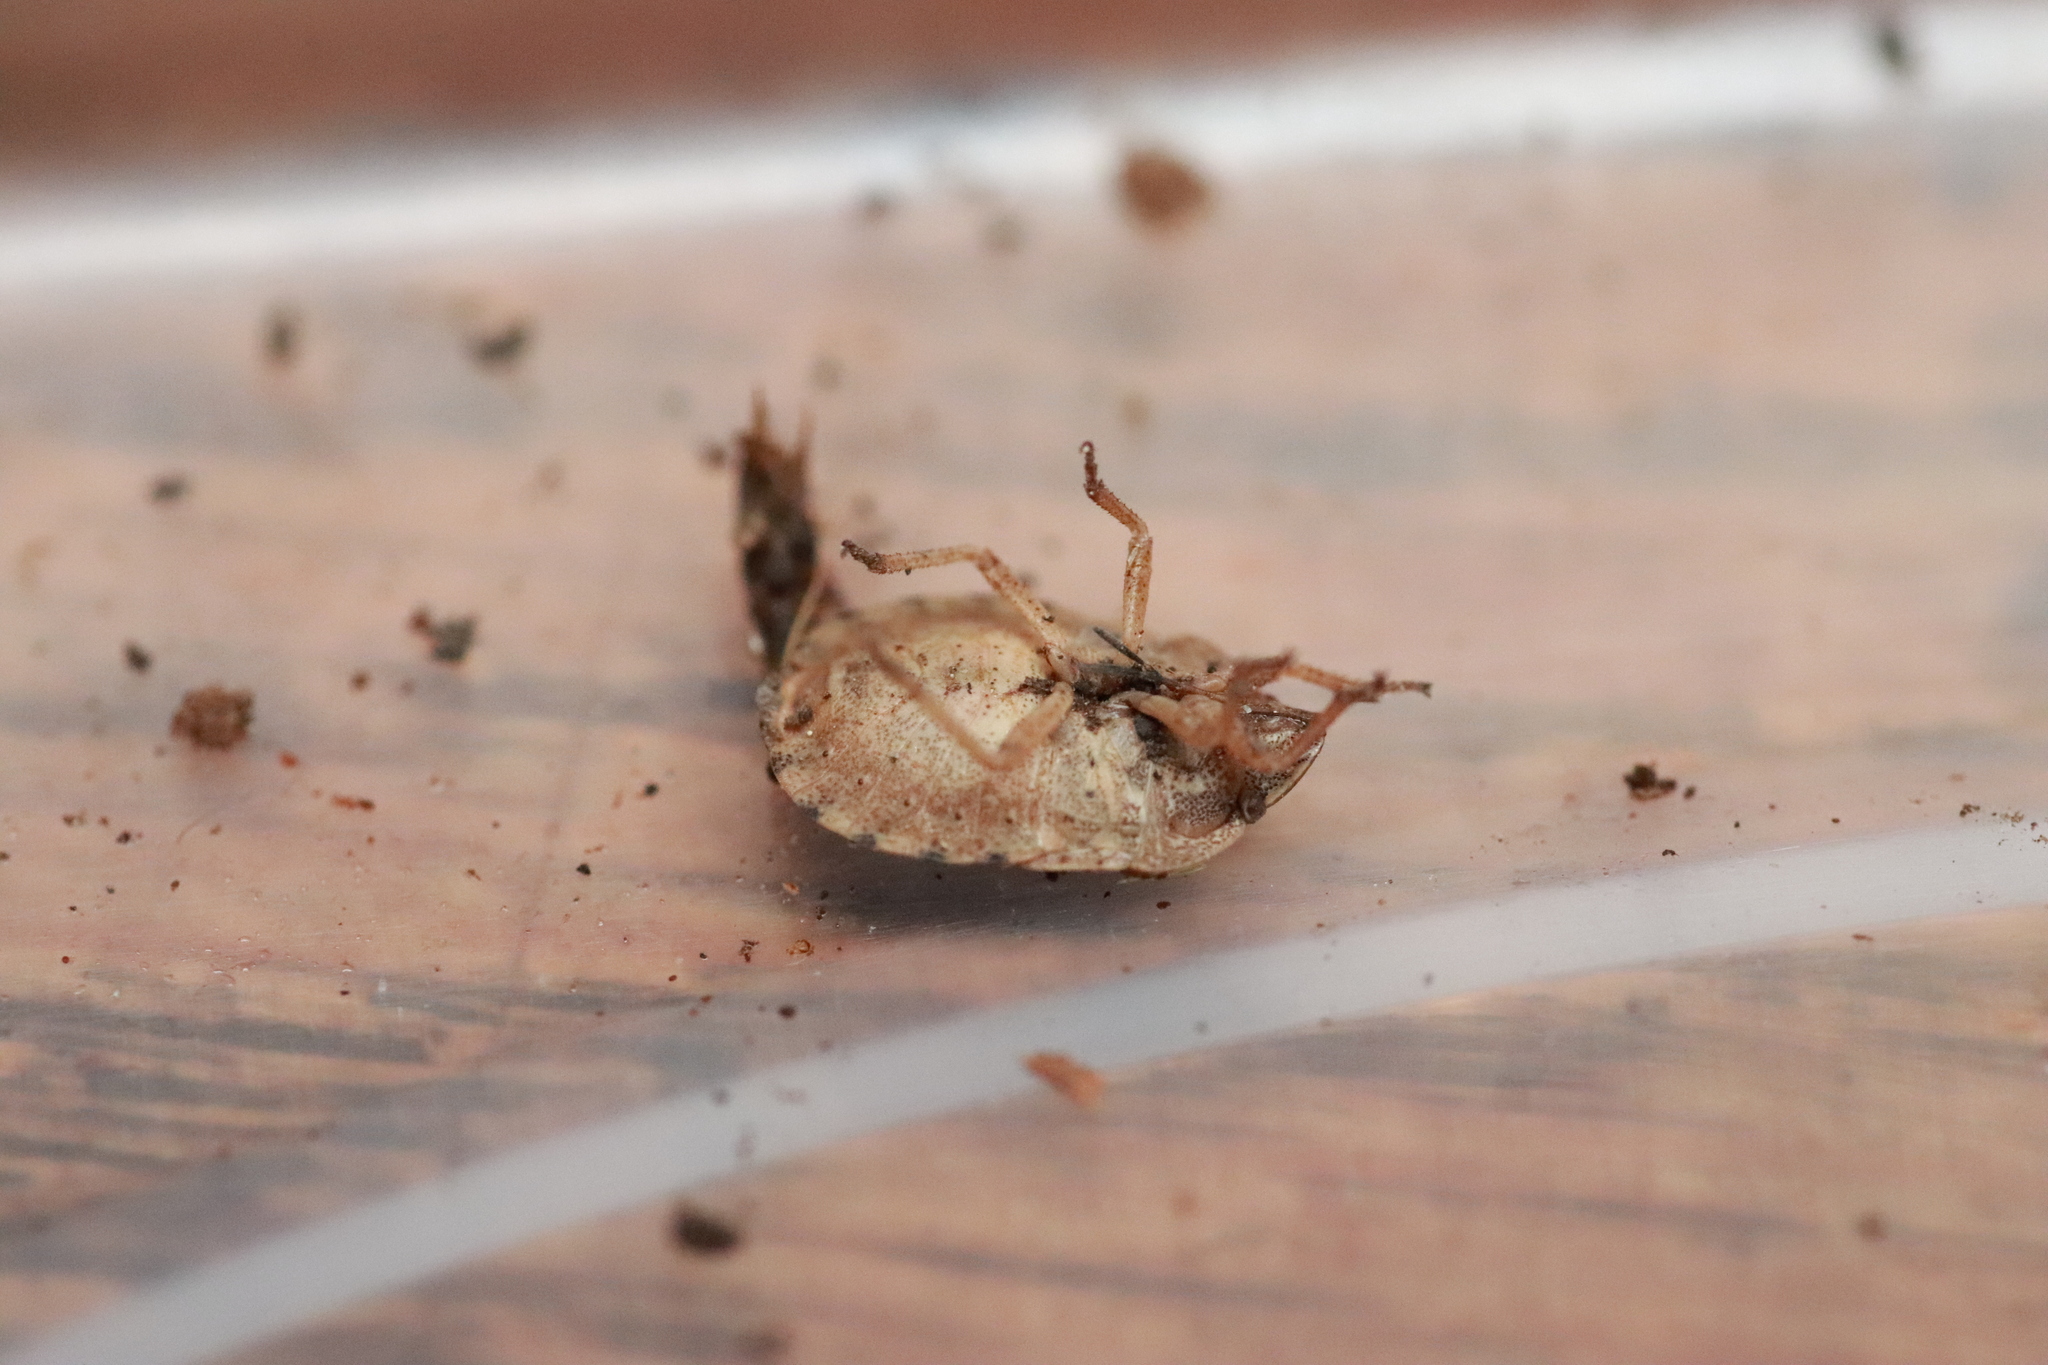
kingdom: Animalia
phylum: Arthropoda
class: Insecta
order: Hemiptera
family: Scutelleridae
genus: Eurygaster
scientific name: Eurygaster dilaticollis
